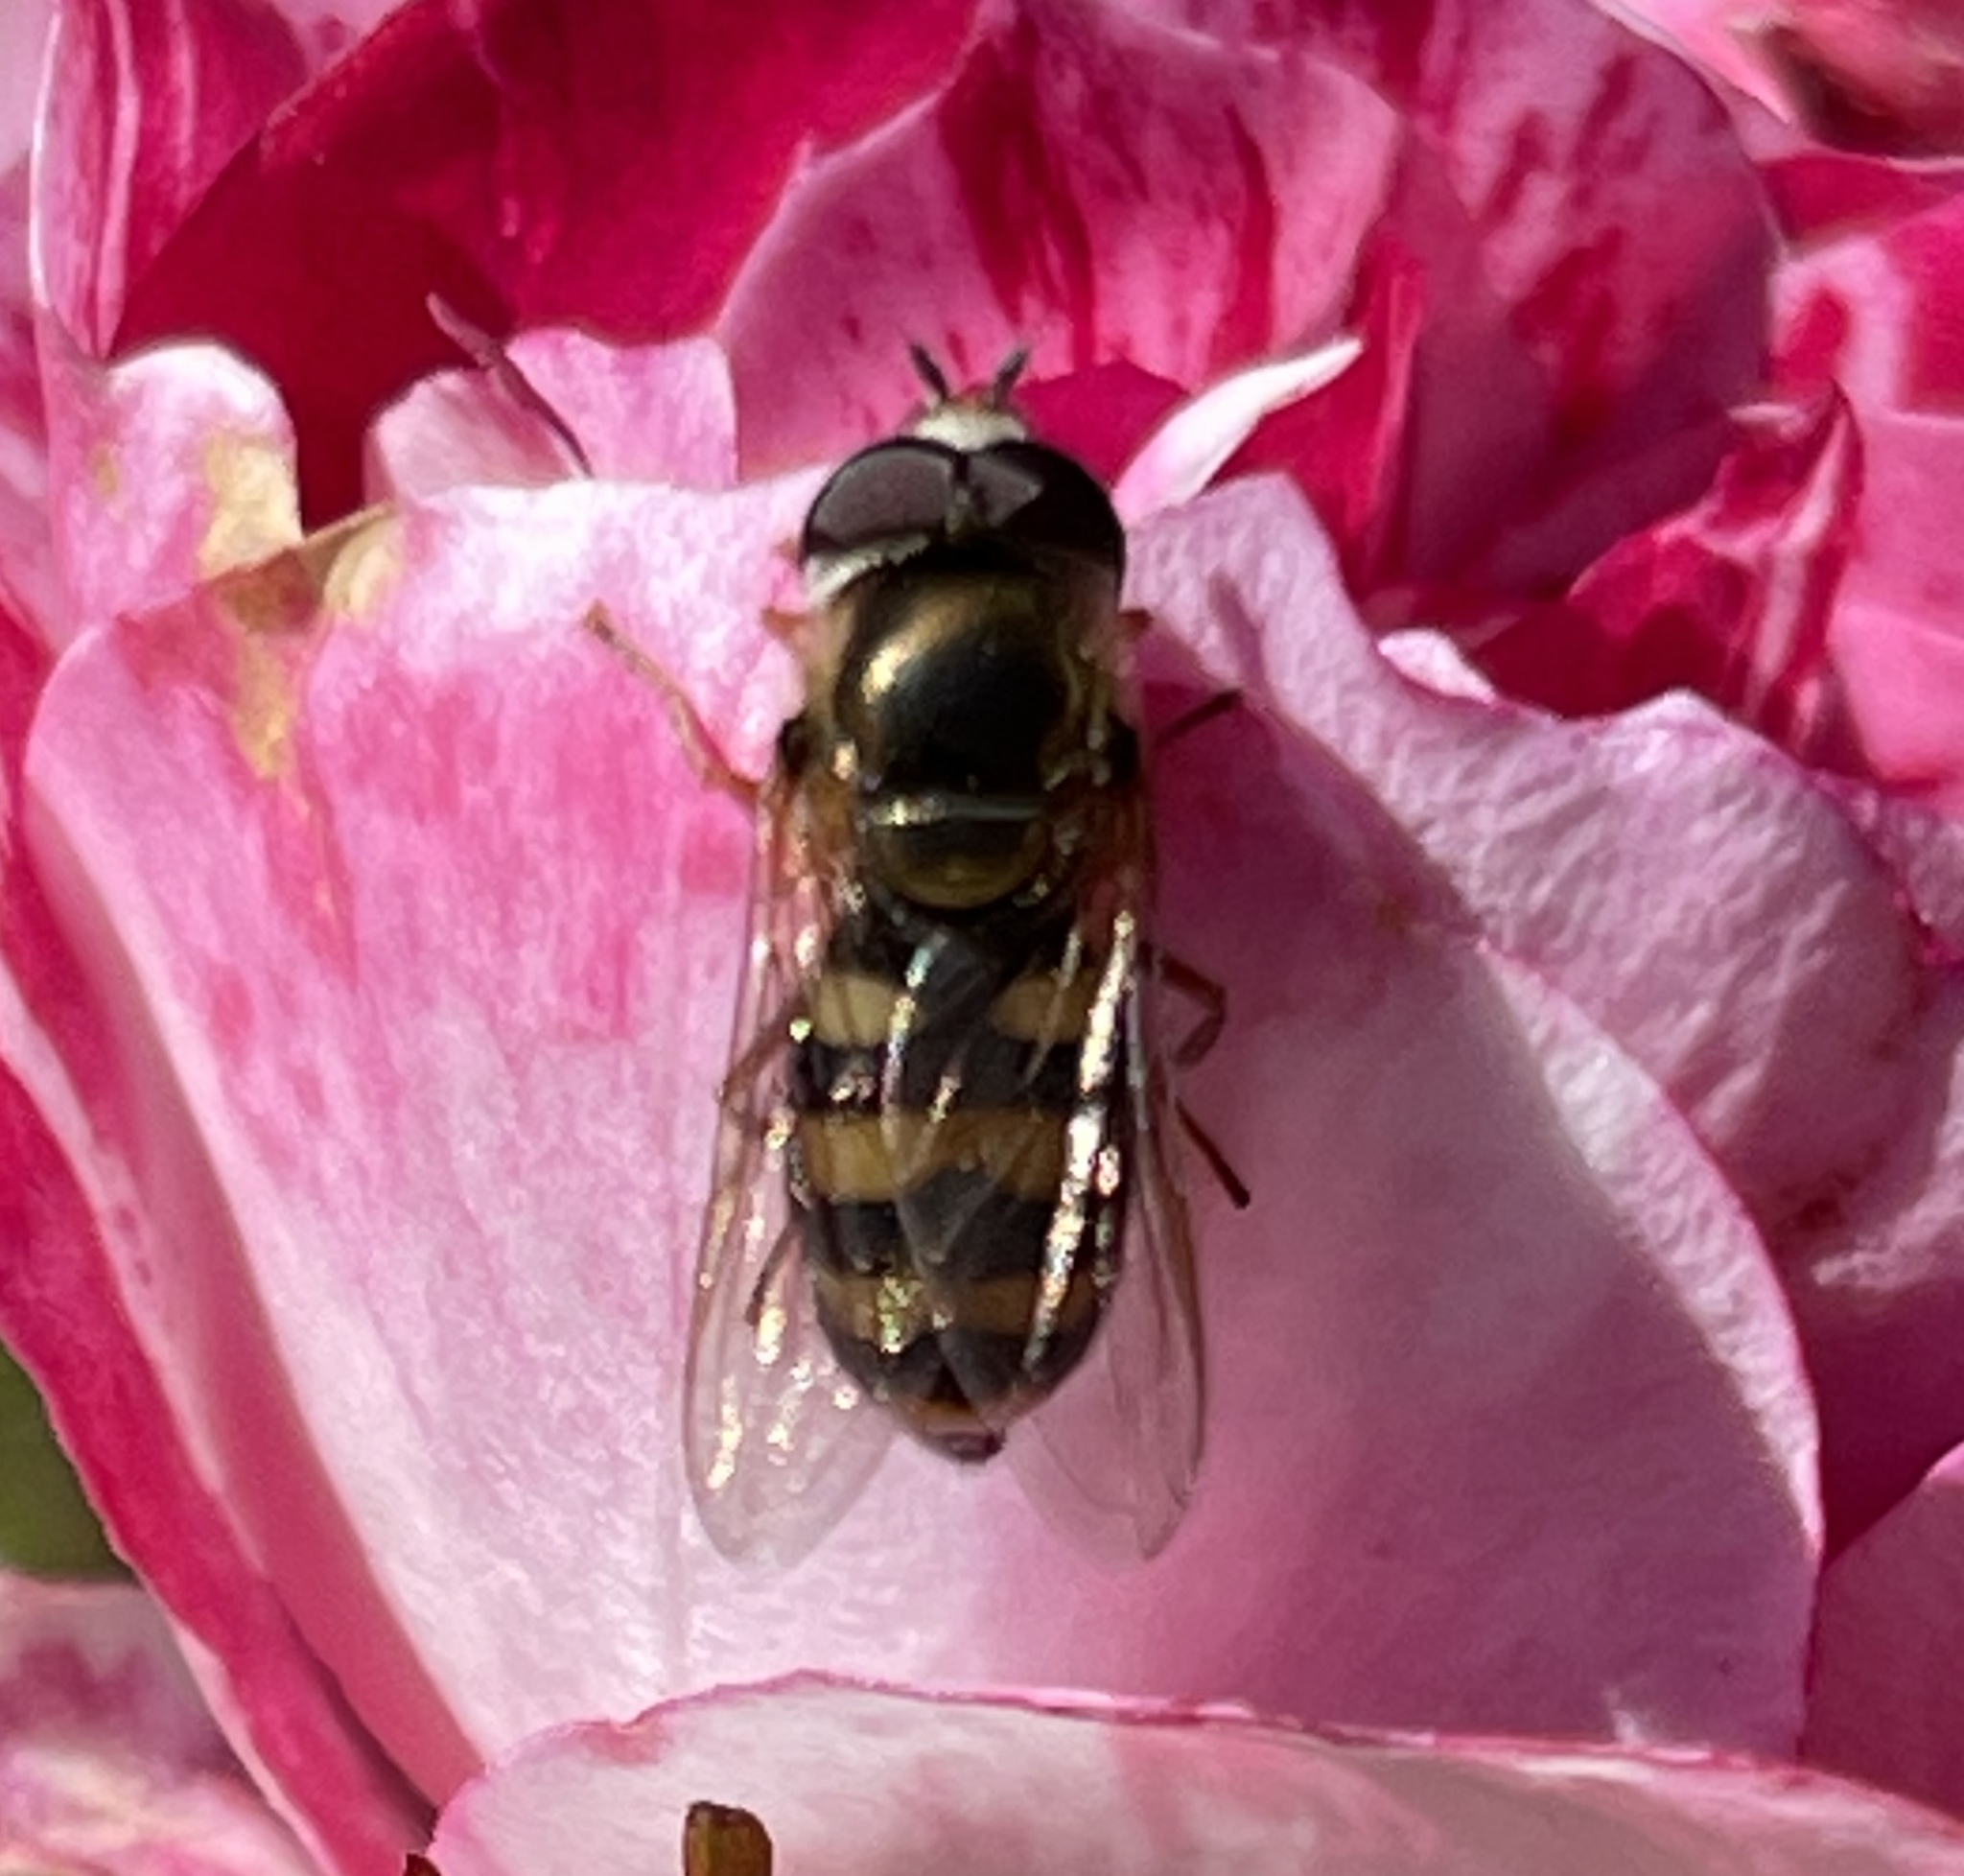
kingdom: Animalia
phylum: Arthropoda
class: Insecta
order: Diptera
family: Syrphidae
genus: Eupeodes
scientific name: Eupeodes fumipennis
